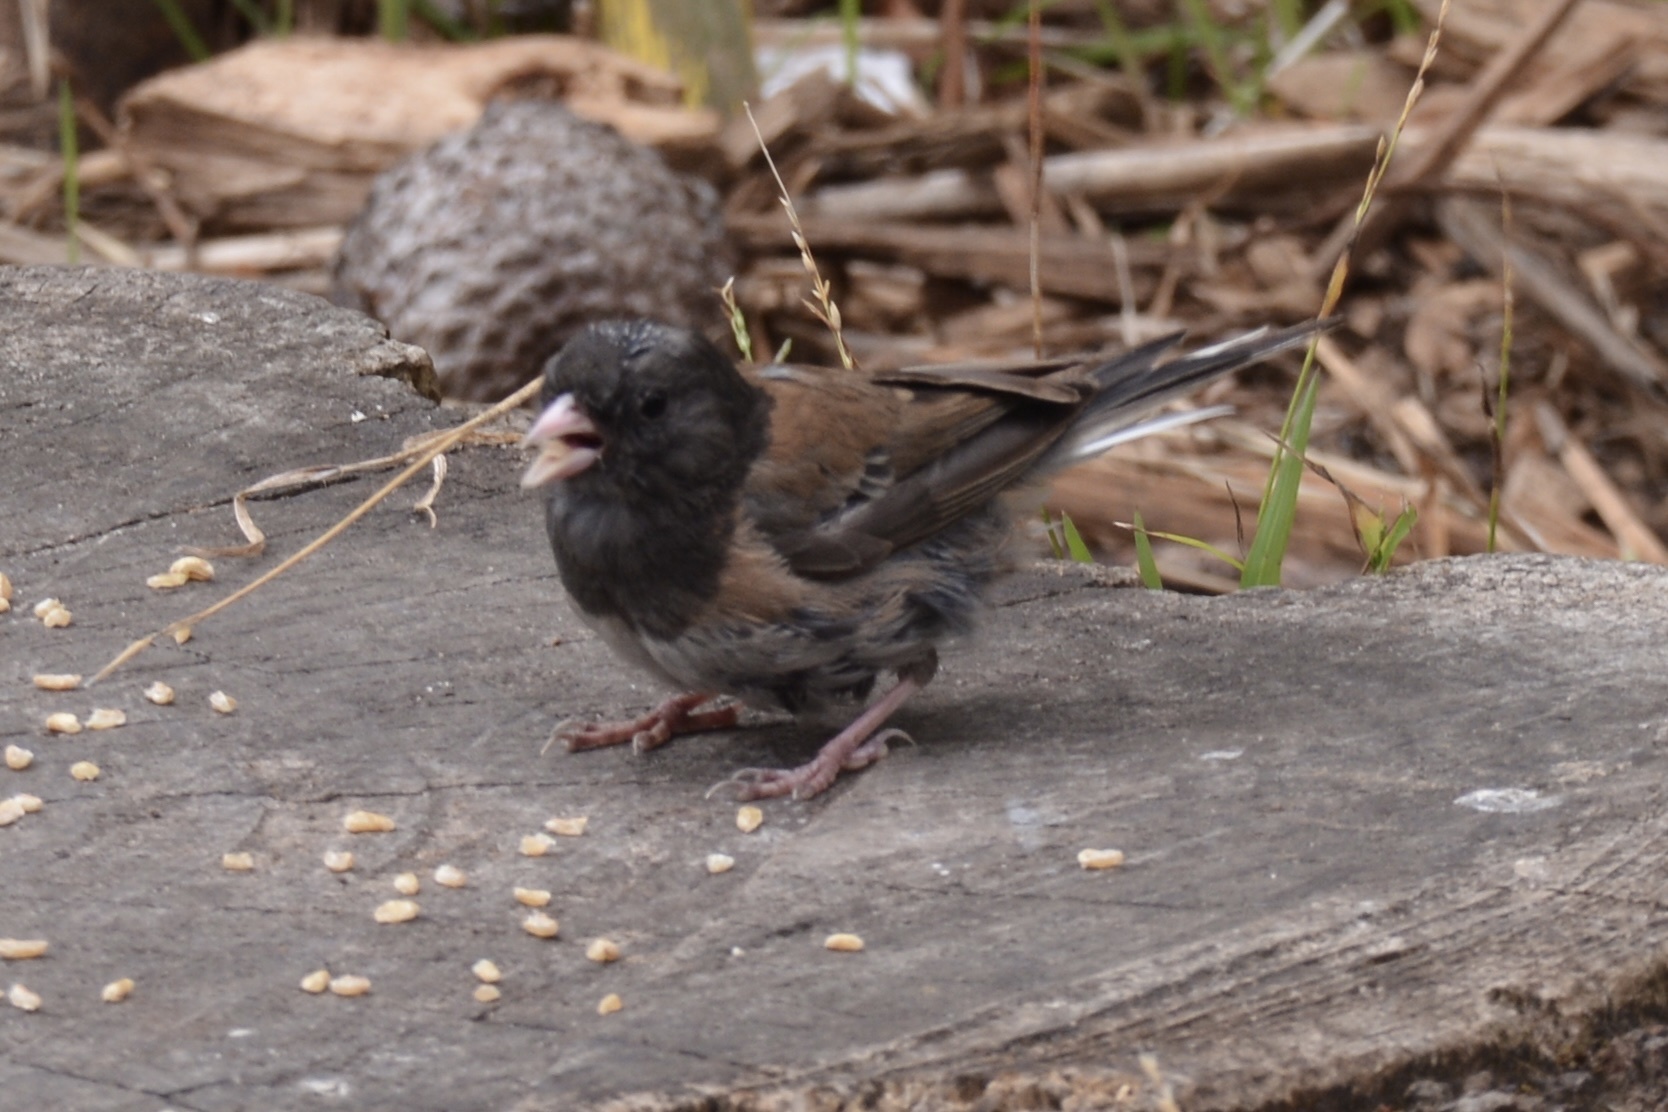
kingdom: Animalia
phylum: Chordata
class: Aves
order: Passeriformes
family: Passerellidae
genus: Junco
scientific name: Junco hyemalis
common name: Dark-eyed junco
